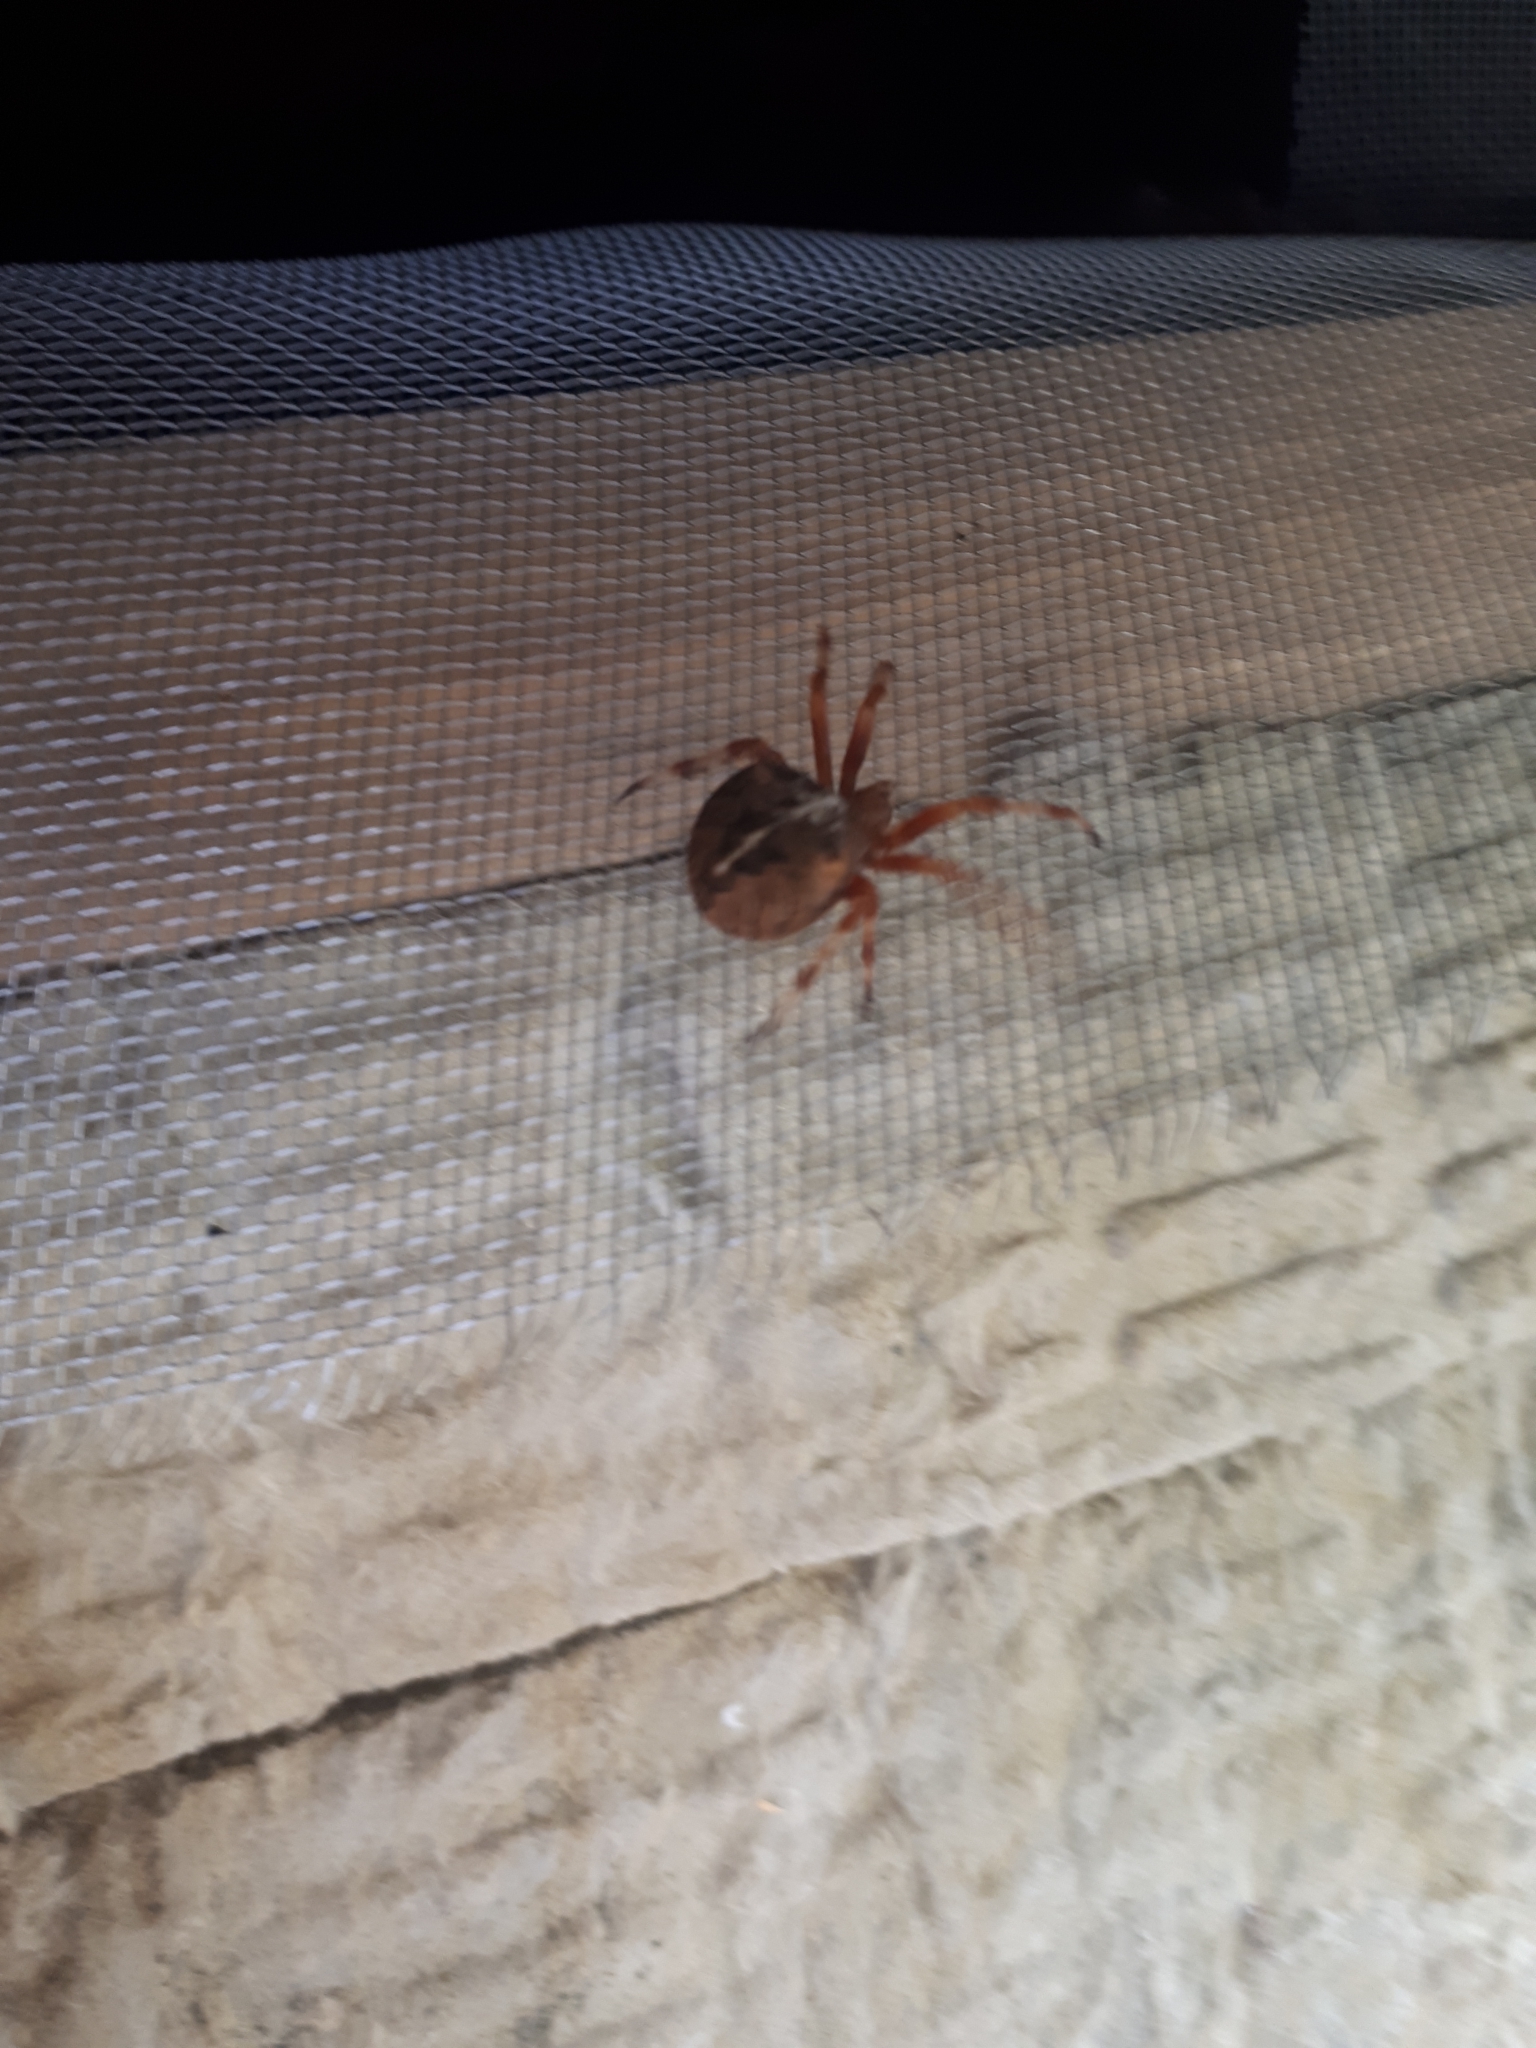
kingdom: Animalia
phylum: Arthropoda
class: Arachnida
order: Araneae
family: Araneidae
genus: Araneus
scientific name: Araneus diadematus
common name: Cross orbweaver
